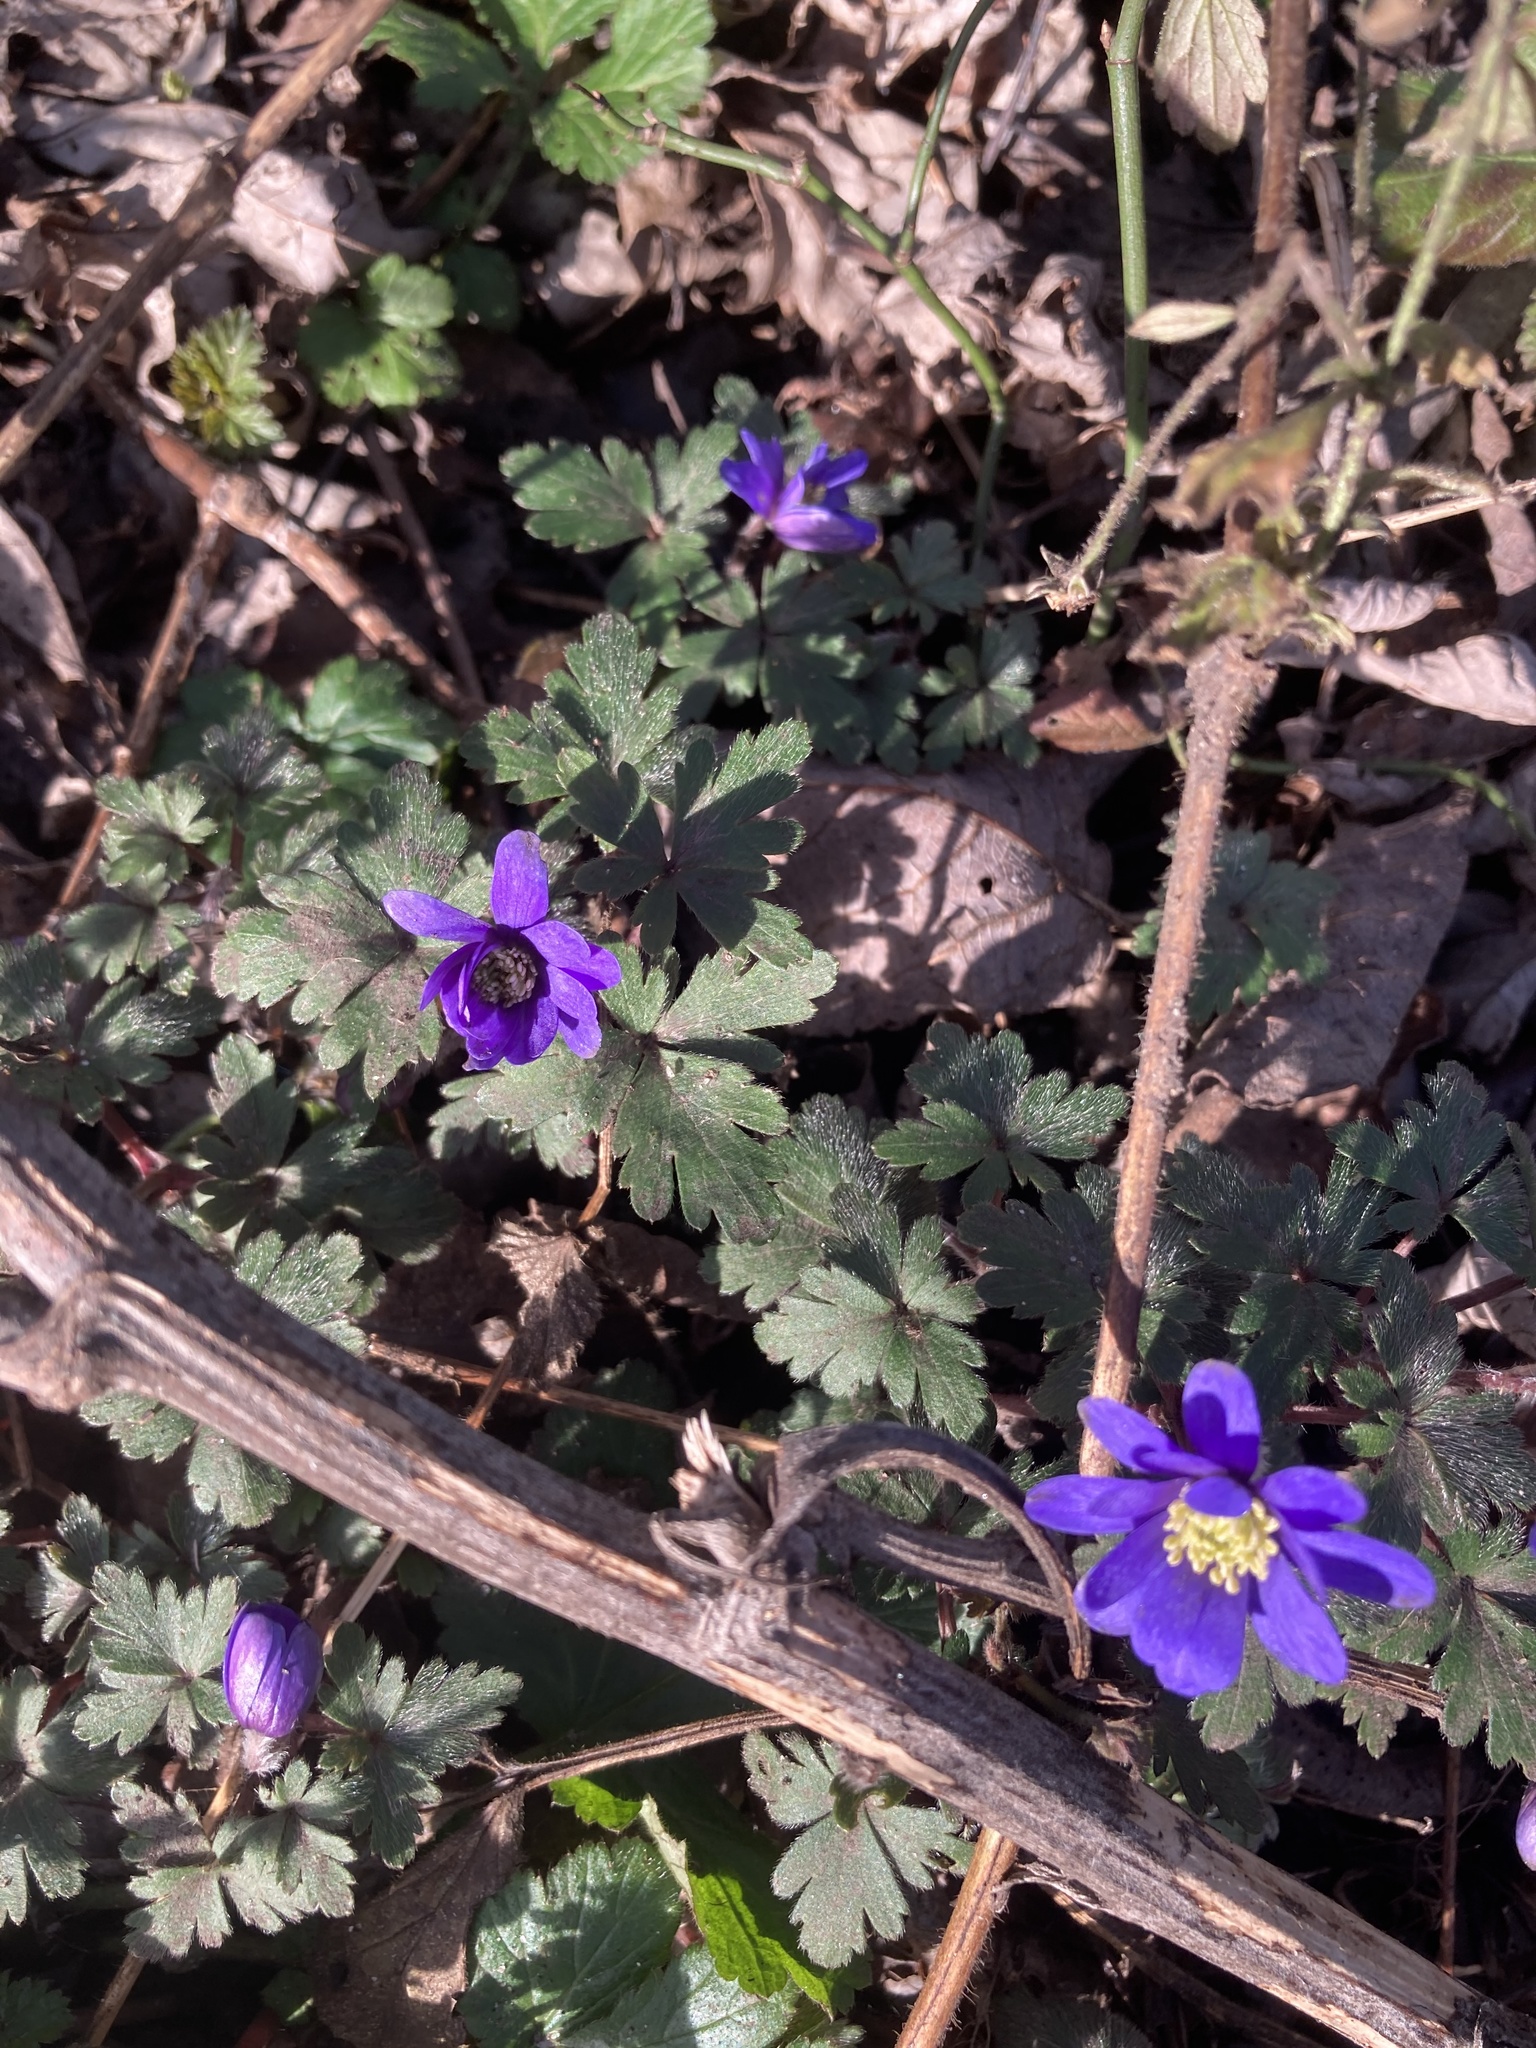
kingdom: Plantae
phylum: Tracheophyta
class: Magnoliopsida
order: Ranunculales
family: Ranunculaceae
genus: Anemone
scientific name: Anemone blanda
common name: Balkan anemone
